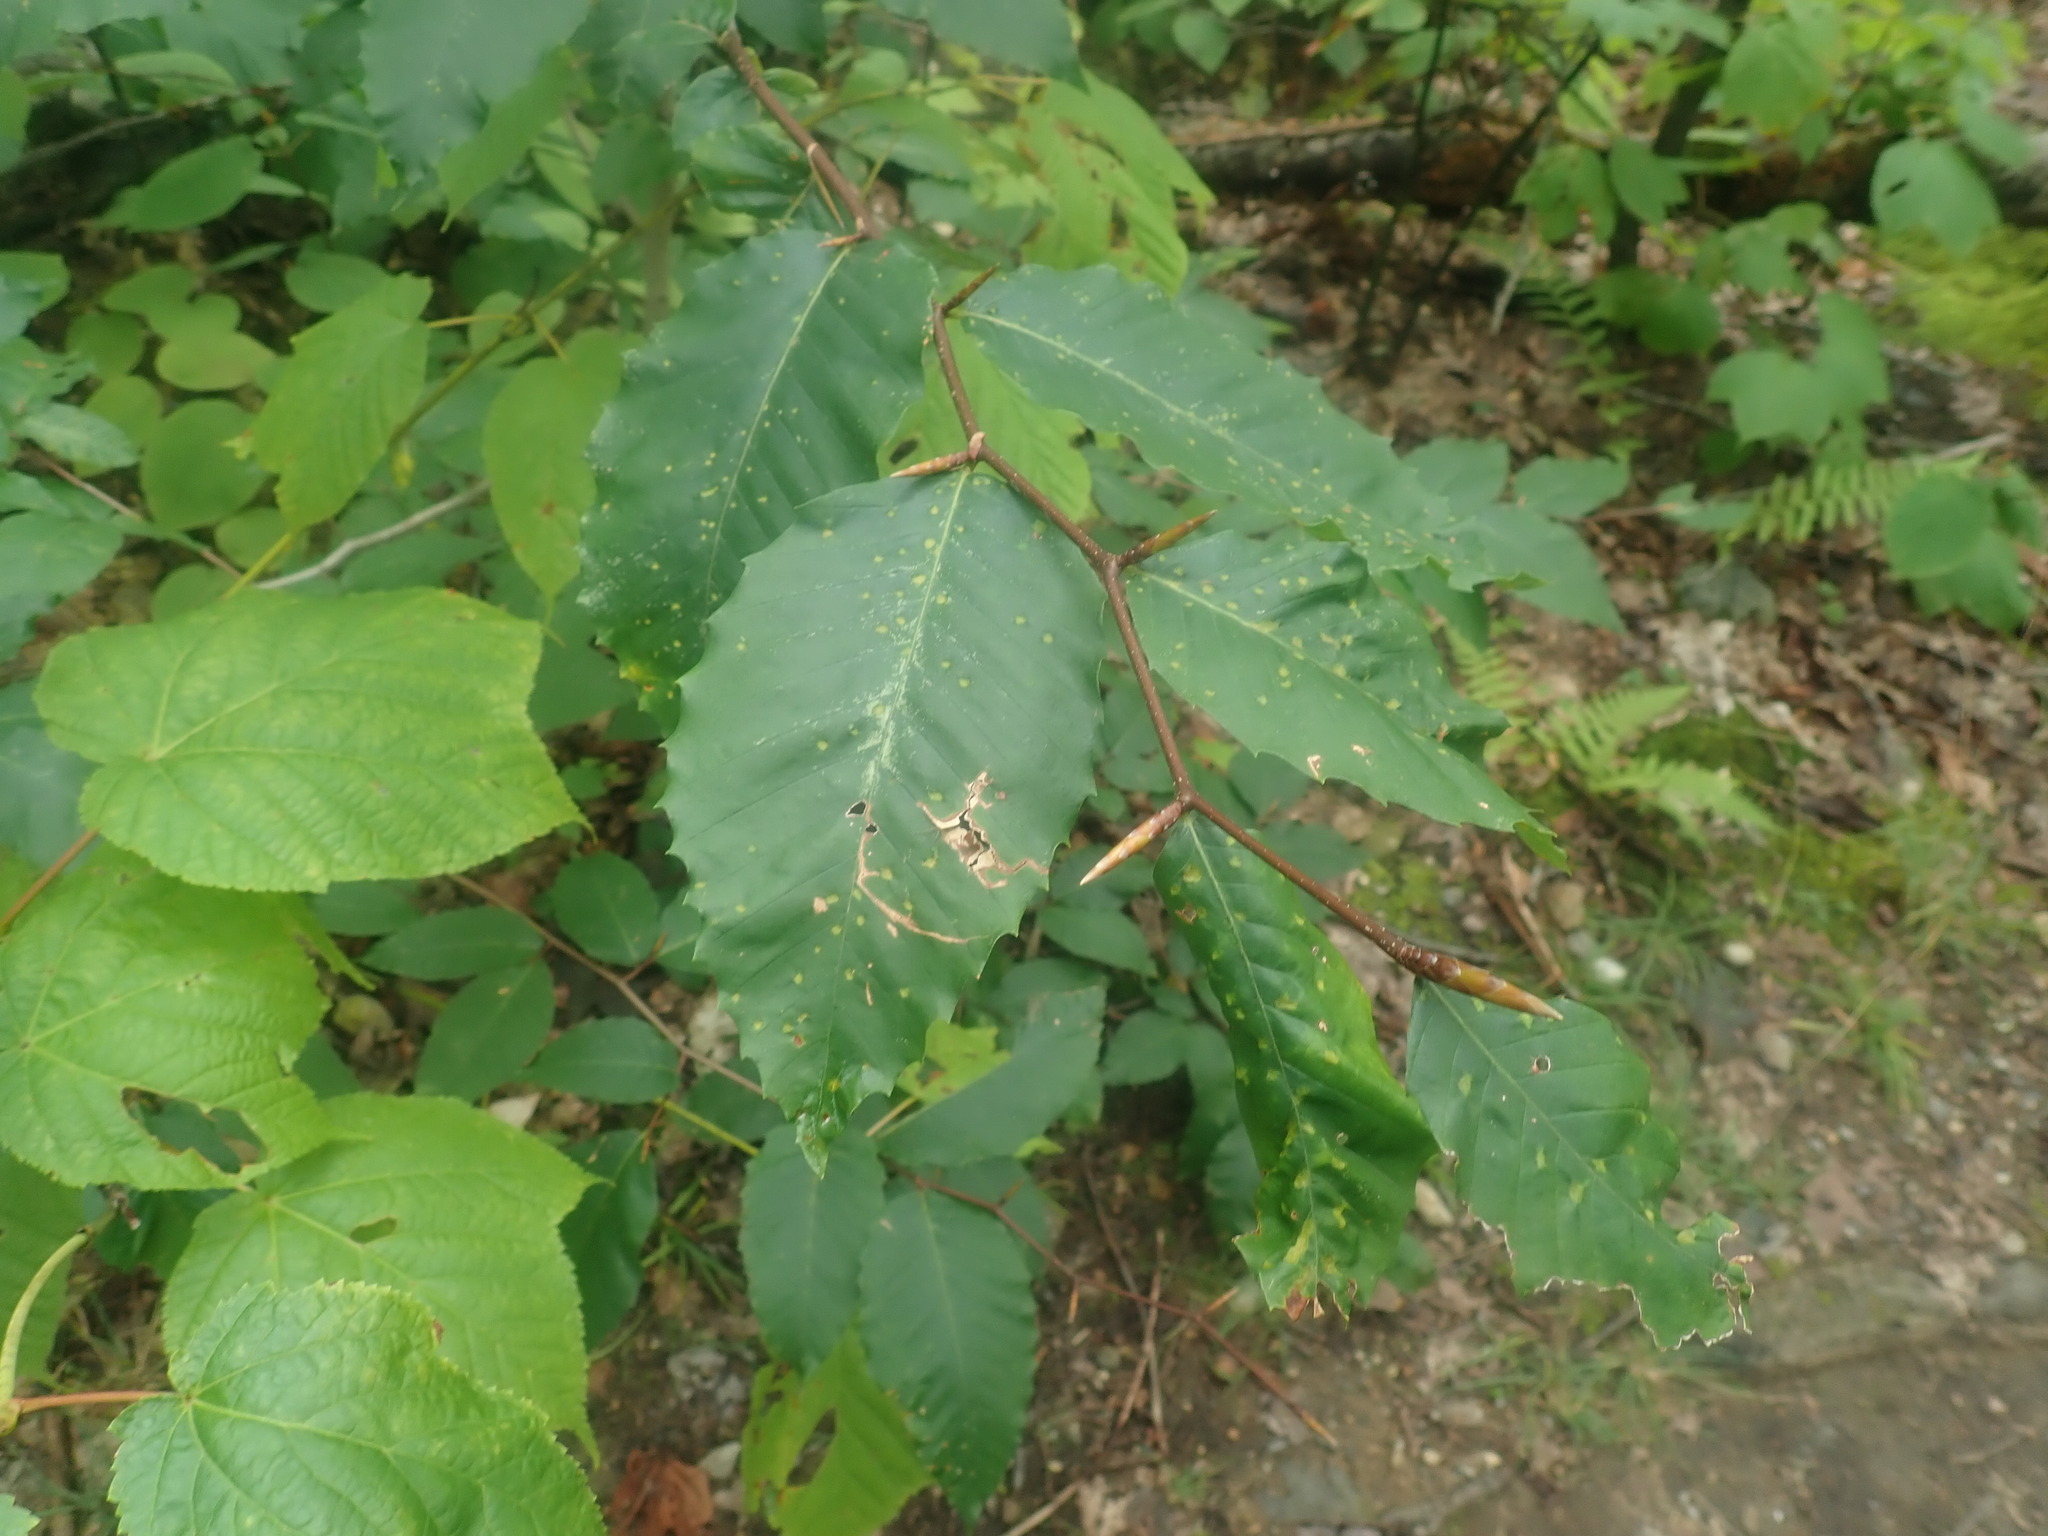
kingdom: Plantae
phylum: Tracheophyta
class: Magnoliopsida
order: Fagales
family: Fagaceae
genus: Fagus
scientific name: Fagus grandifolia
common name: American beech
